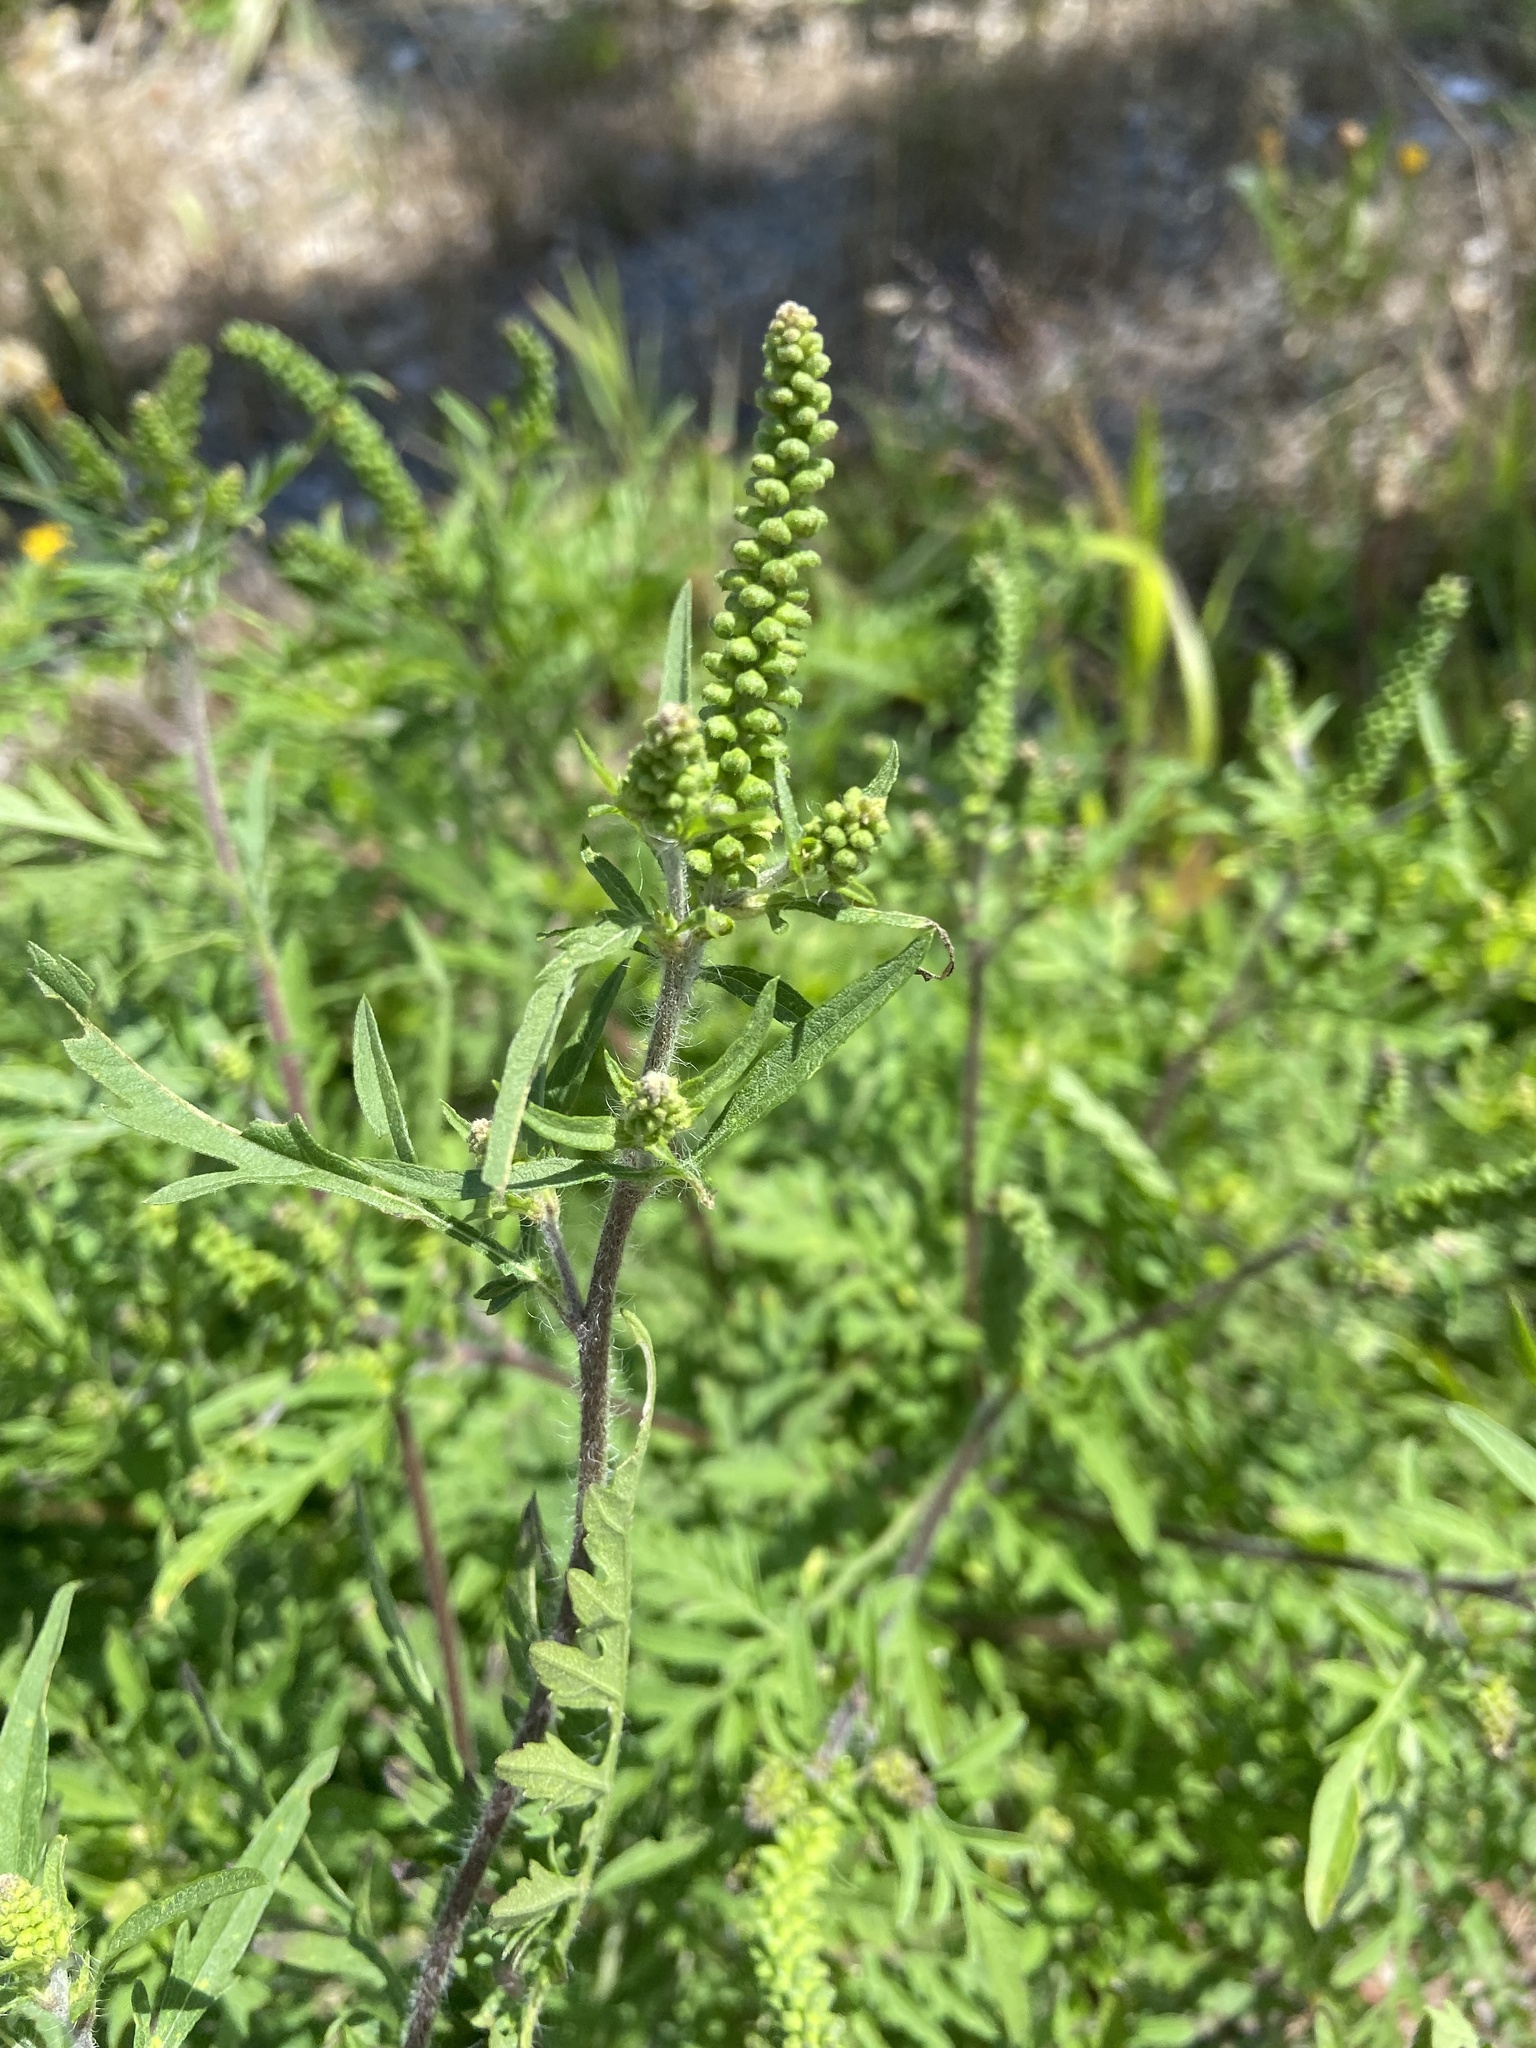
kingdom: Plantae
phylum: Tracheophyta
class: Magnoliopsida
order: Asterales
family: Asteraceae
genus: Ambrosia
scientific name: Ambrosia artemisiifolia
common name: Annual ragweed
